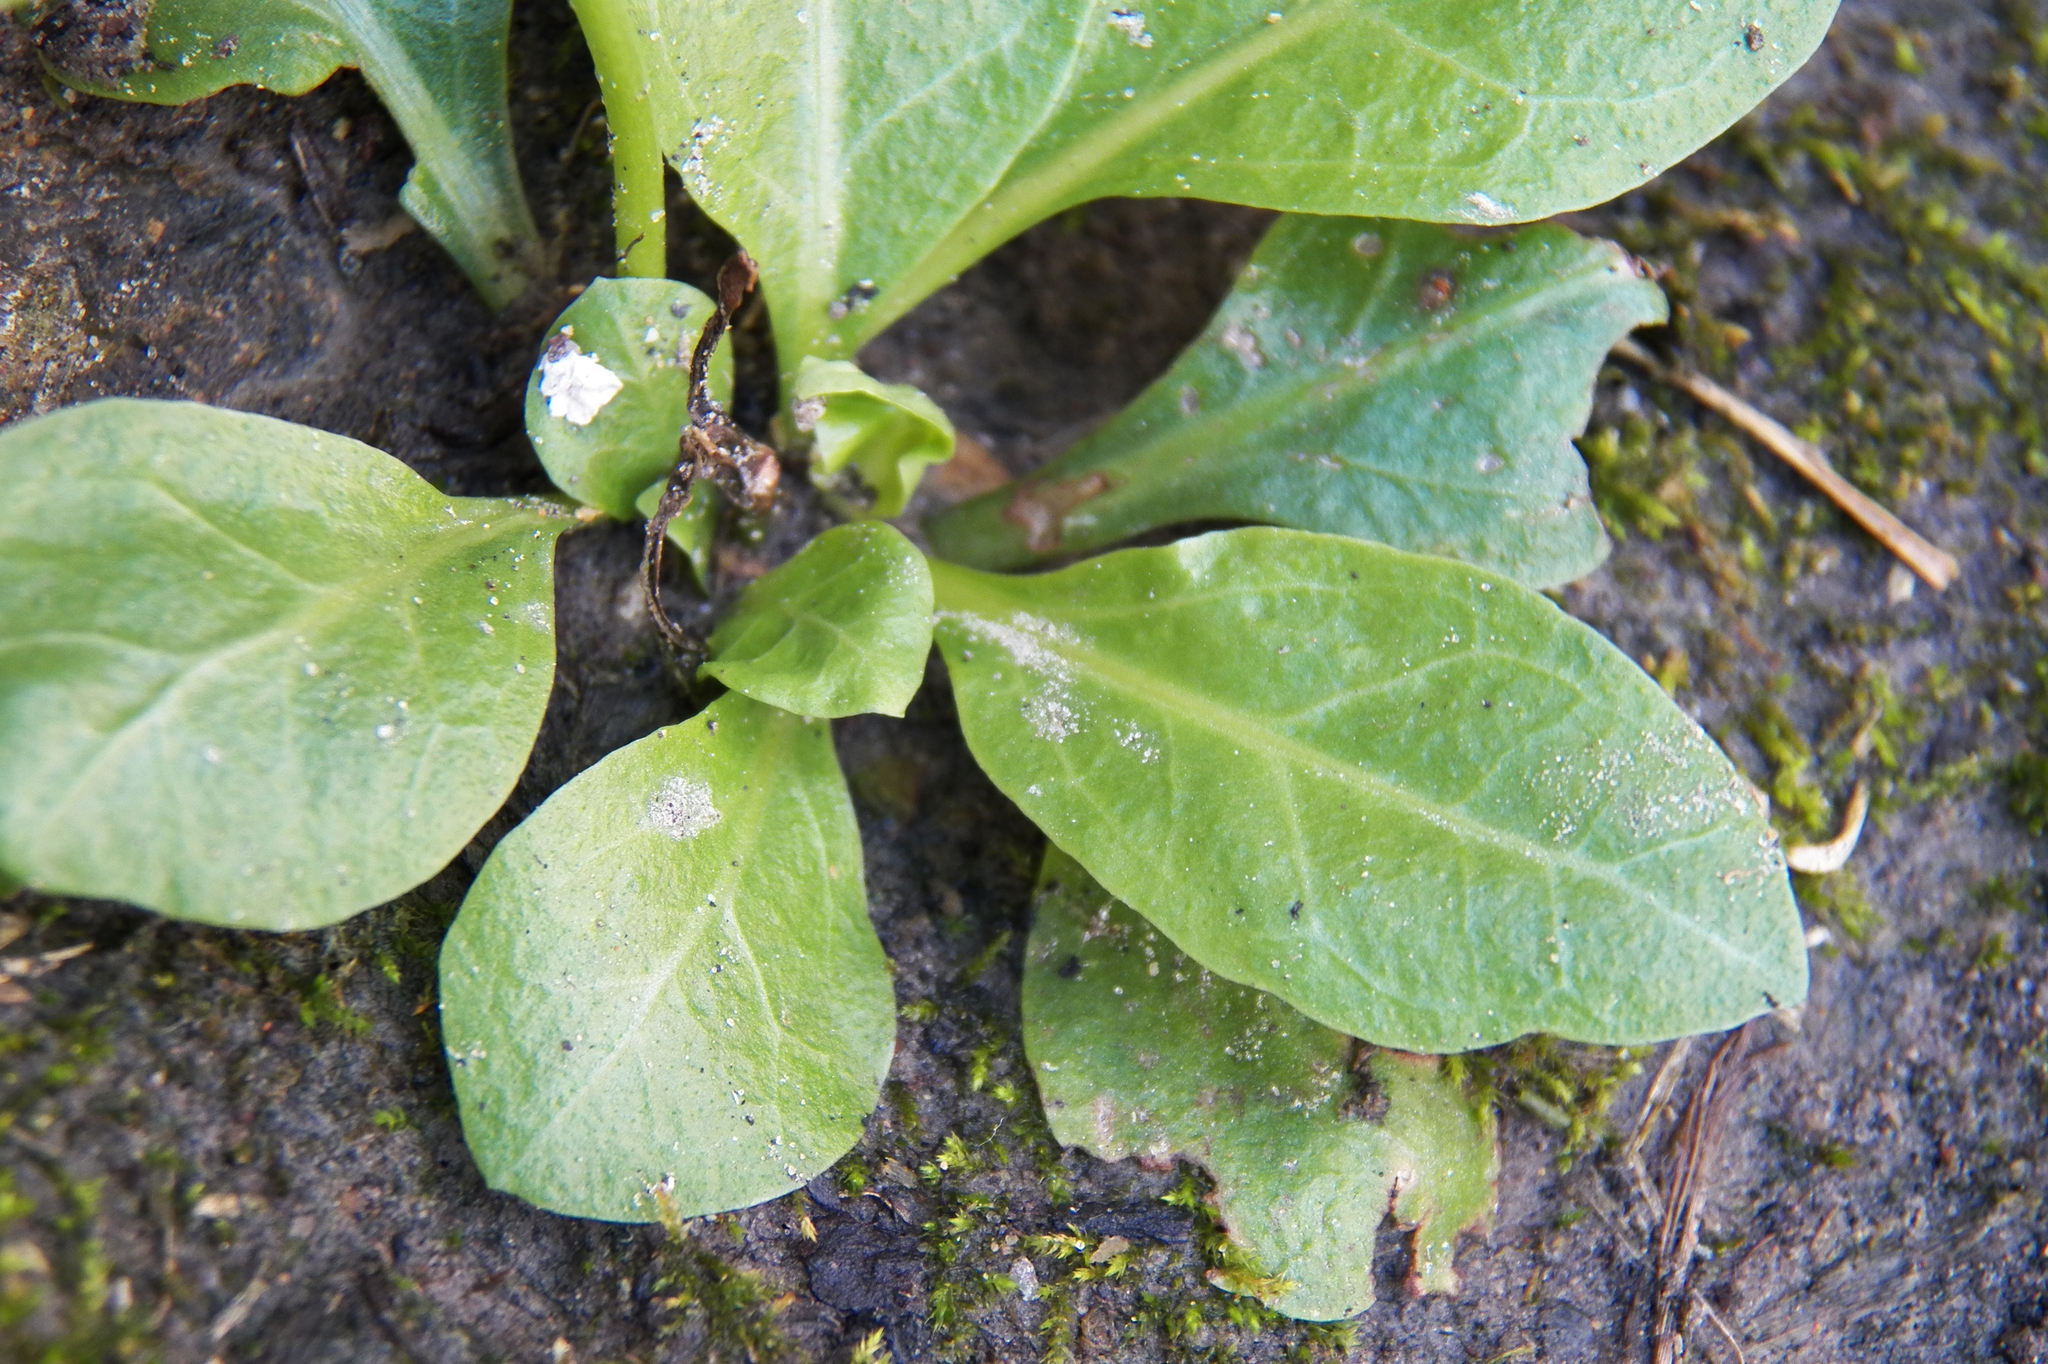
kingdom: Plantae
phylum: Tracheophyta
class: Magnoliopsida
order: Ericales
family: Primulaceae
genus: Samolus
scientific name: Samolus parviflorus
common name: False water pimpernel
